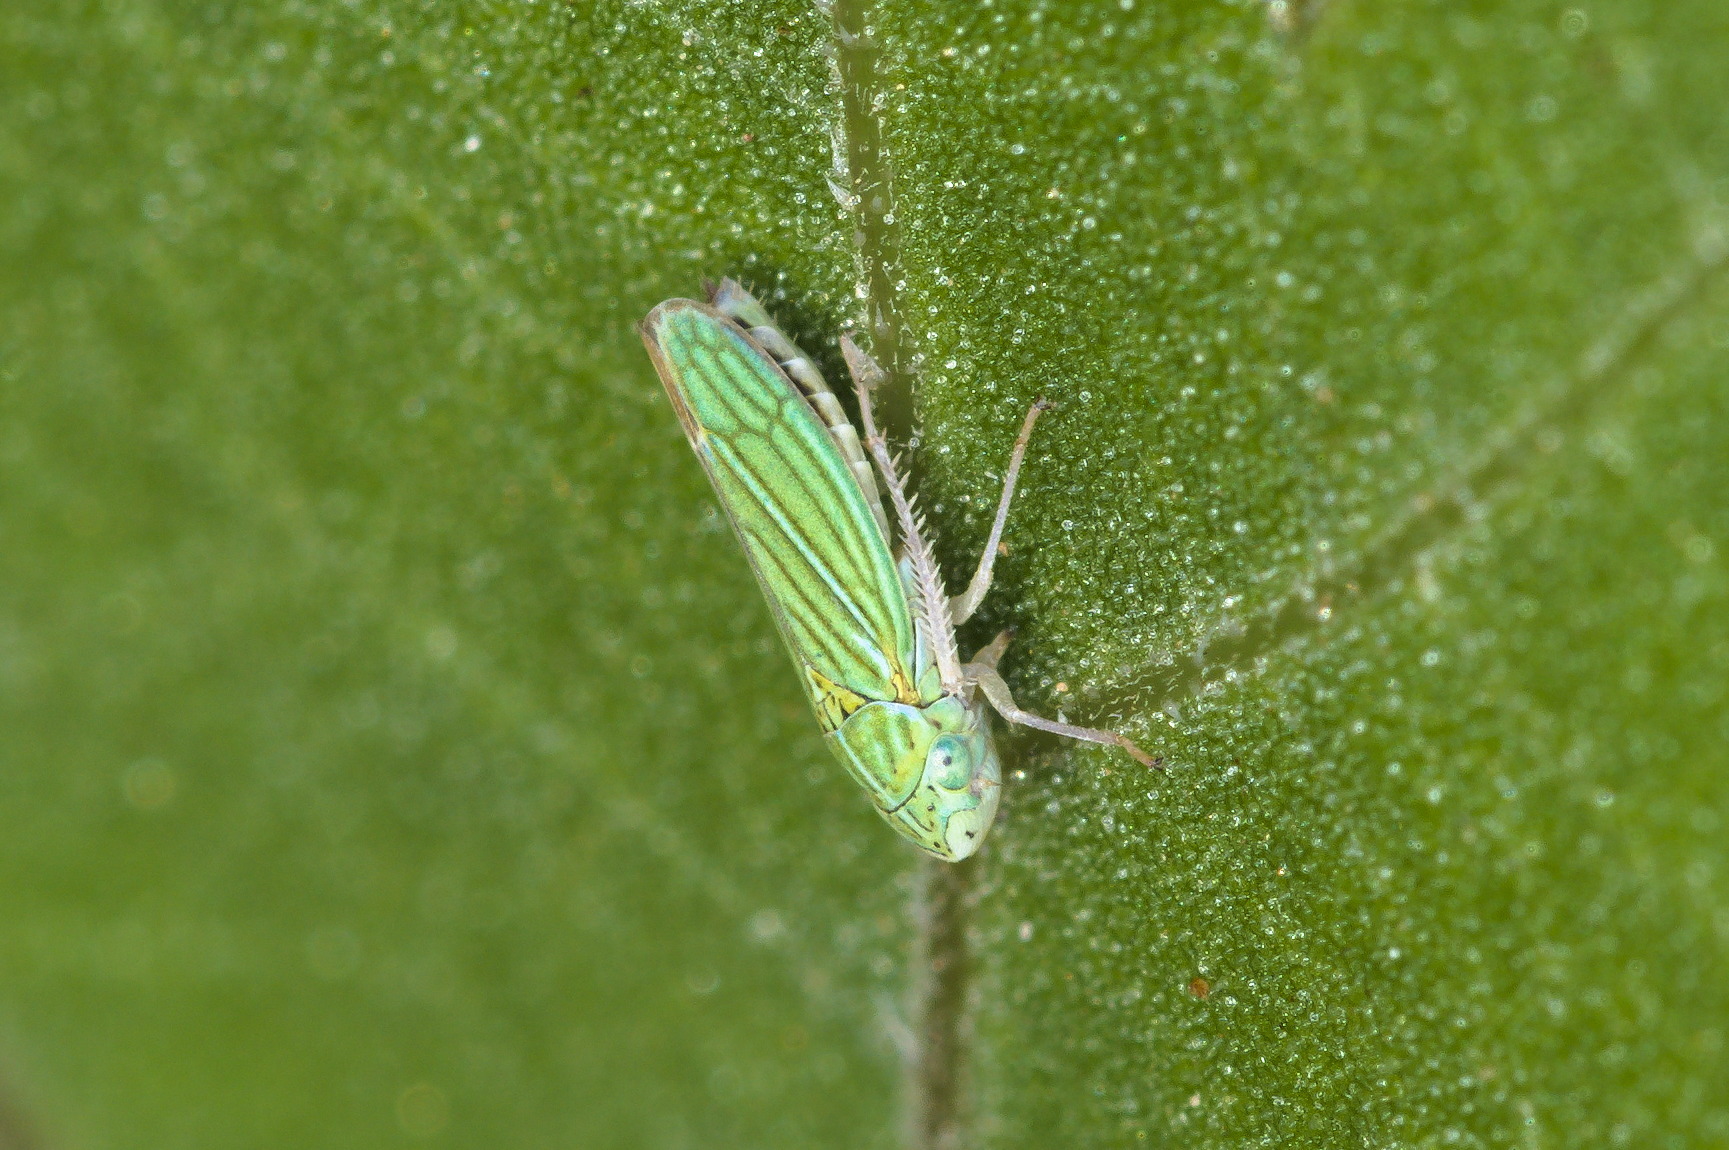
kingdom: Animalia
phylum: Arthropoda
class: Insecta
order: Hemiptera
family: Cicadellidae
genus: Graphocephala
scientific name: Graphocephala cythura
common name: Leafhopper
